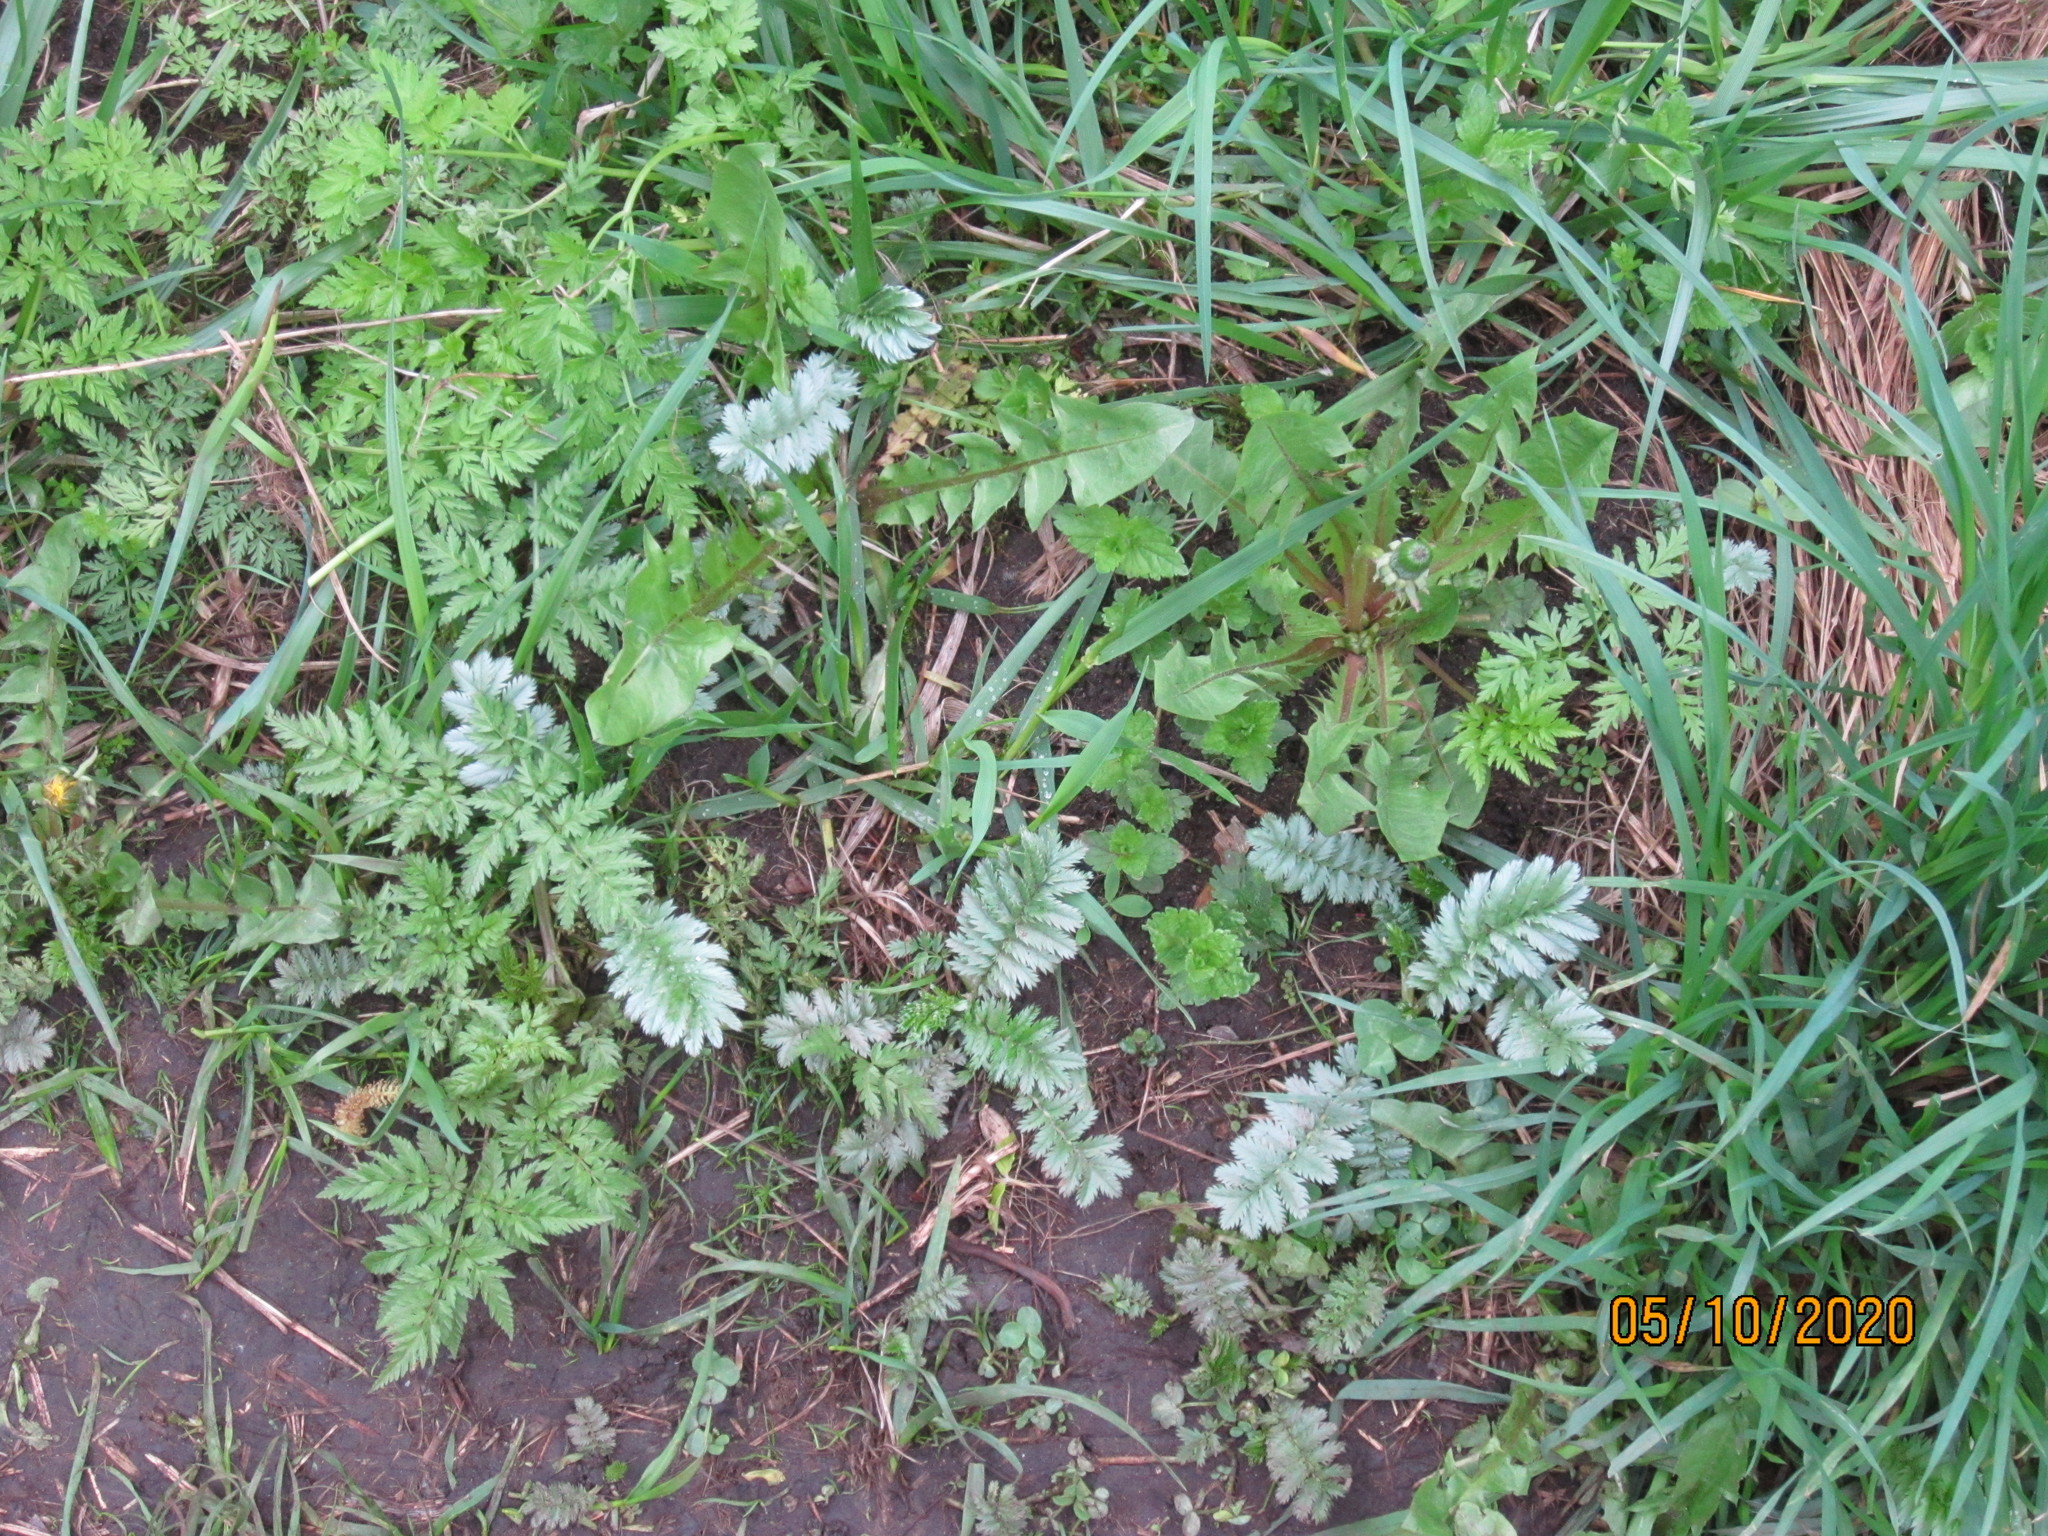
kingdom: Plantae
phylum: Tracheophyta
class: Magnoliopsida
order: Rosales
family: Rosaceae
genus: Argentina
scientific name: Argentina anserina
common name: Common silverweed
